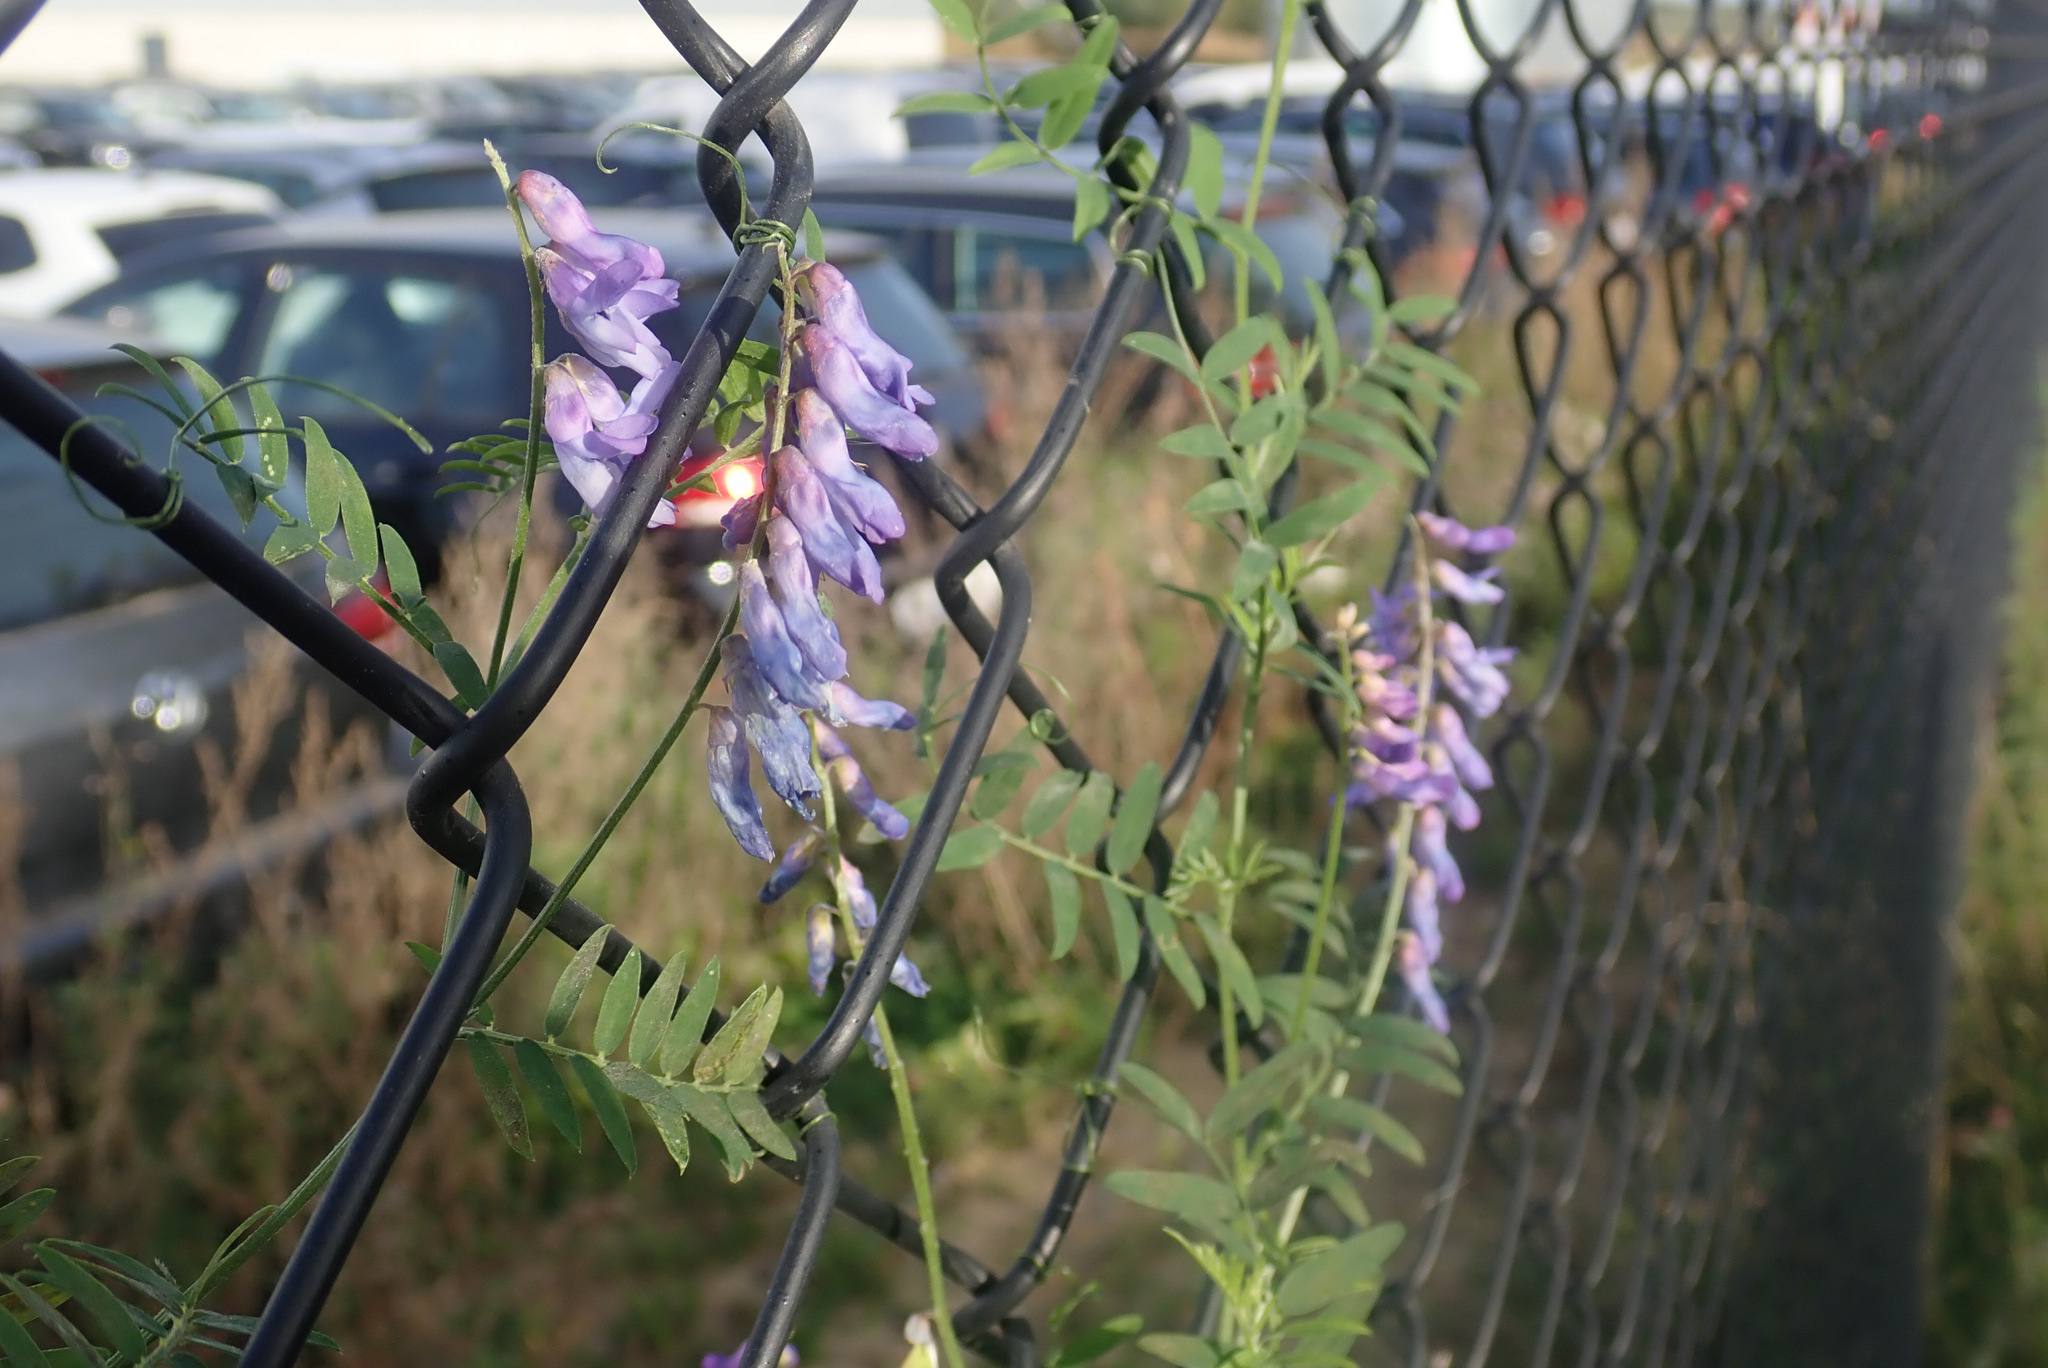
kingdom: Plantae
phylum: Tracheophyta
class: Magnoliopsida
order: Fabales
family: Fabaceae
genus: Vicia
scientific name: Vicia cracca
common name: Bird vetch
